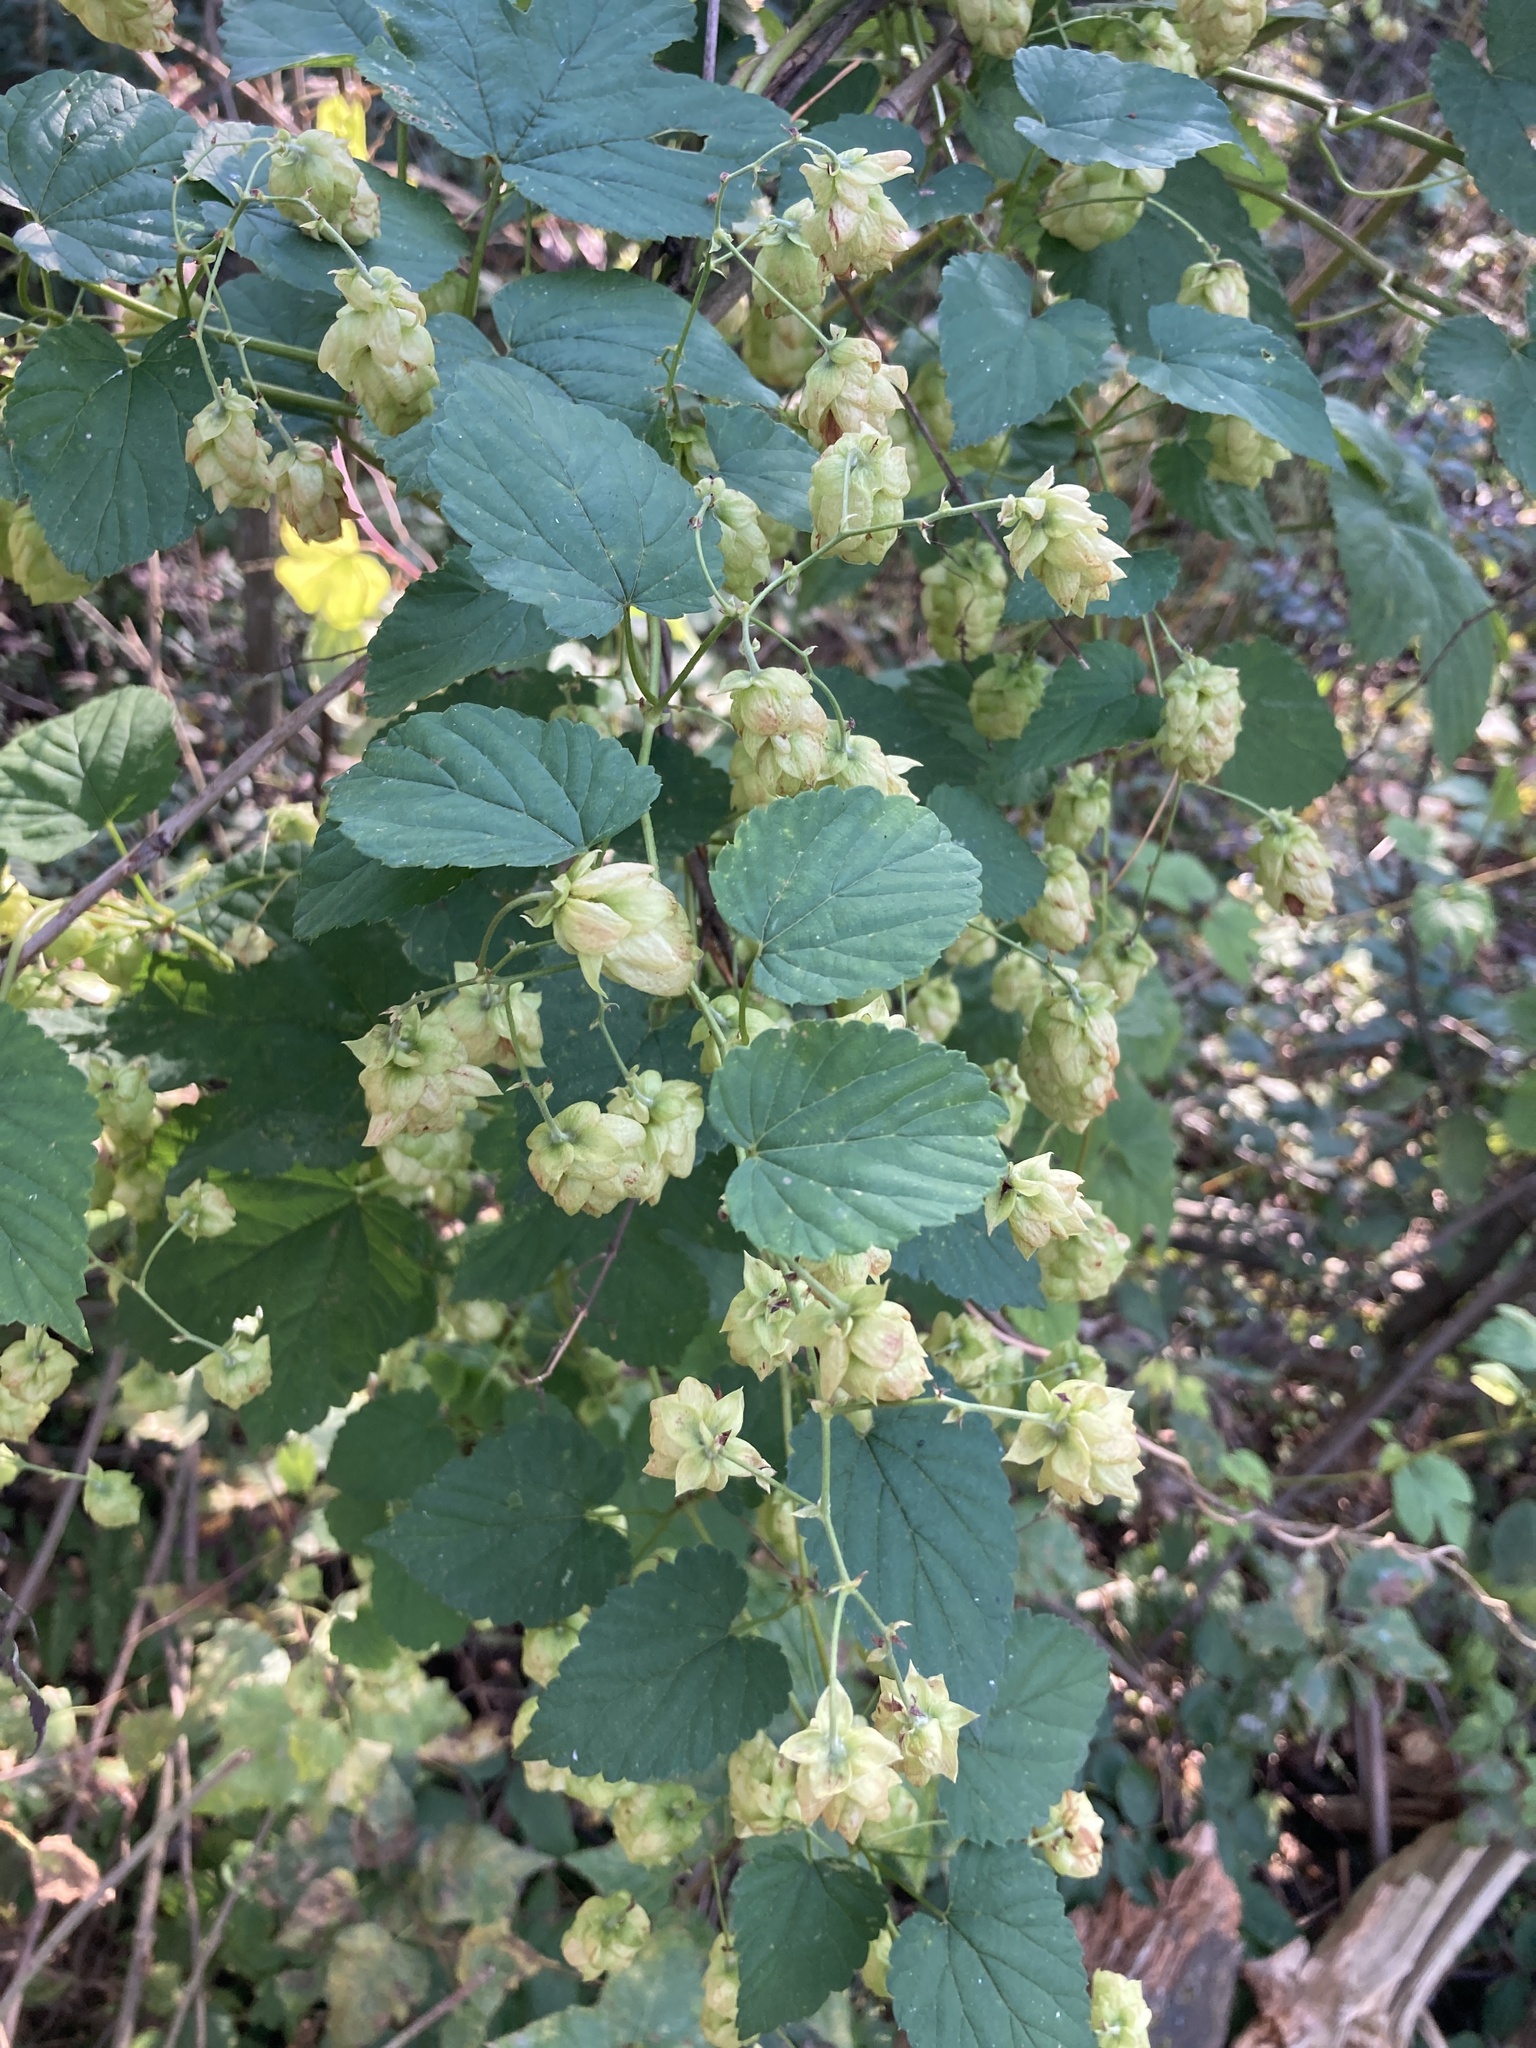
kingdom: Plantae
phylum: Tracheophyta
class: Magnoliopsida
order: Rosales
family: Cannabaceae
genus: Humulus
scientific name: Humulus lupulus
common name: Hop
